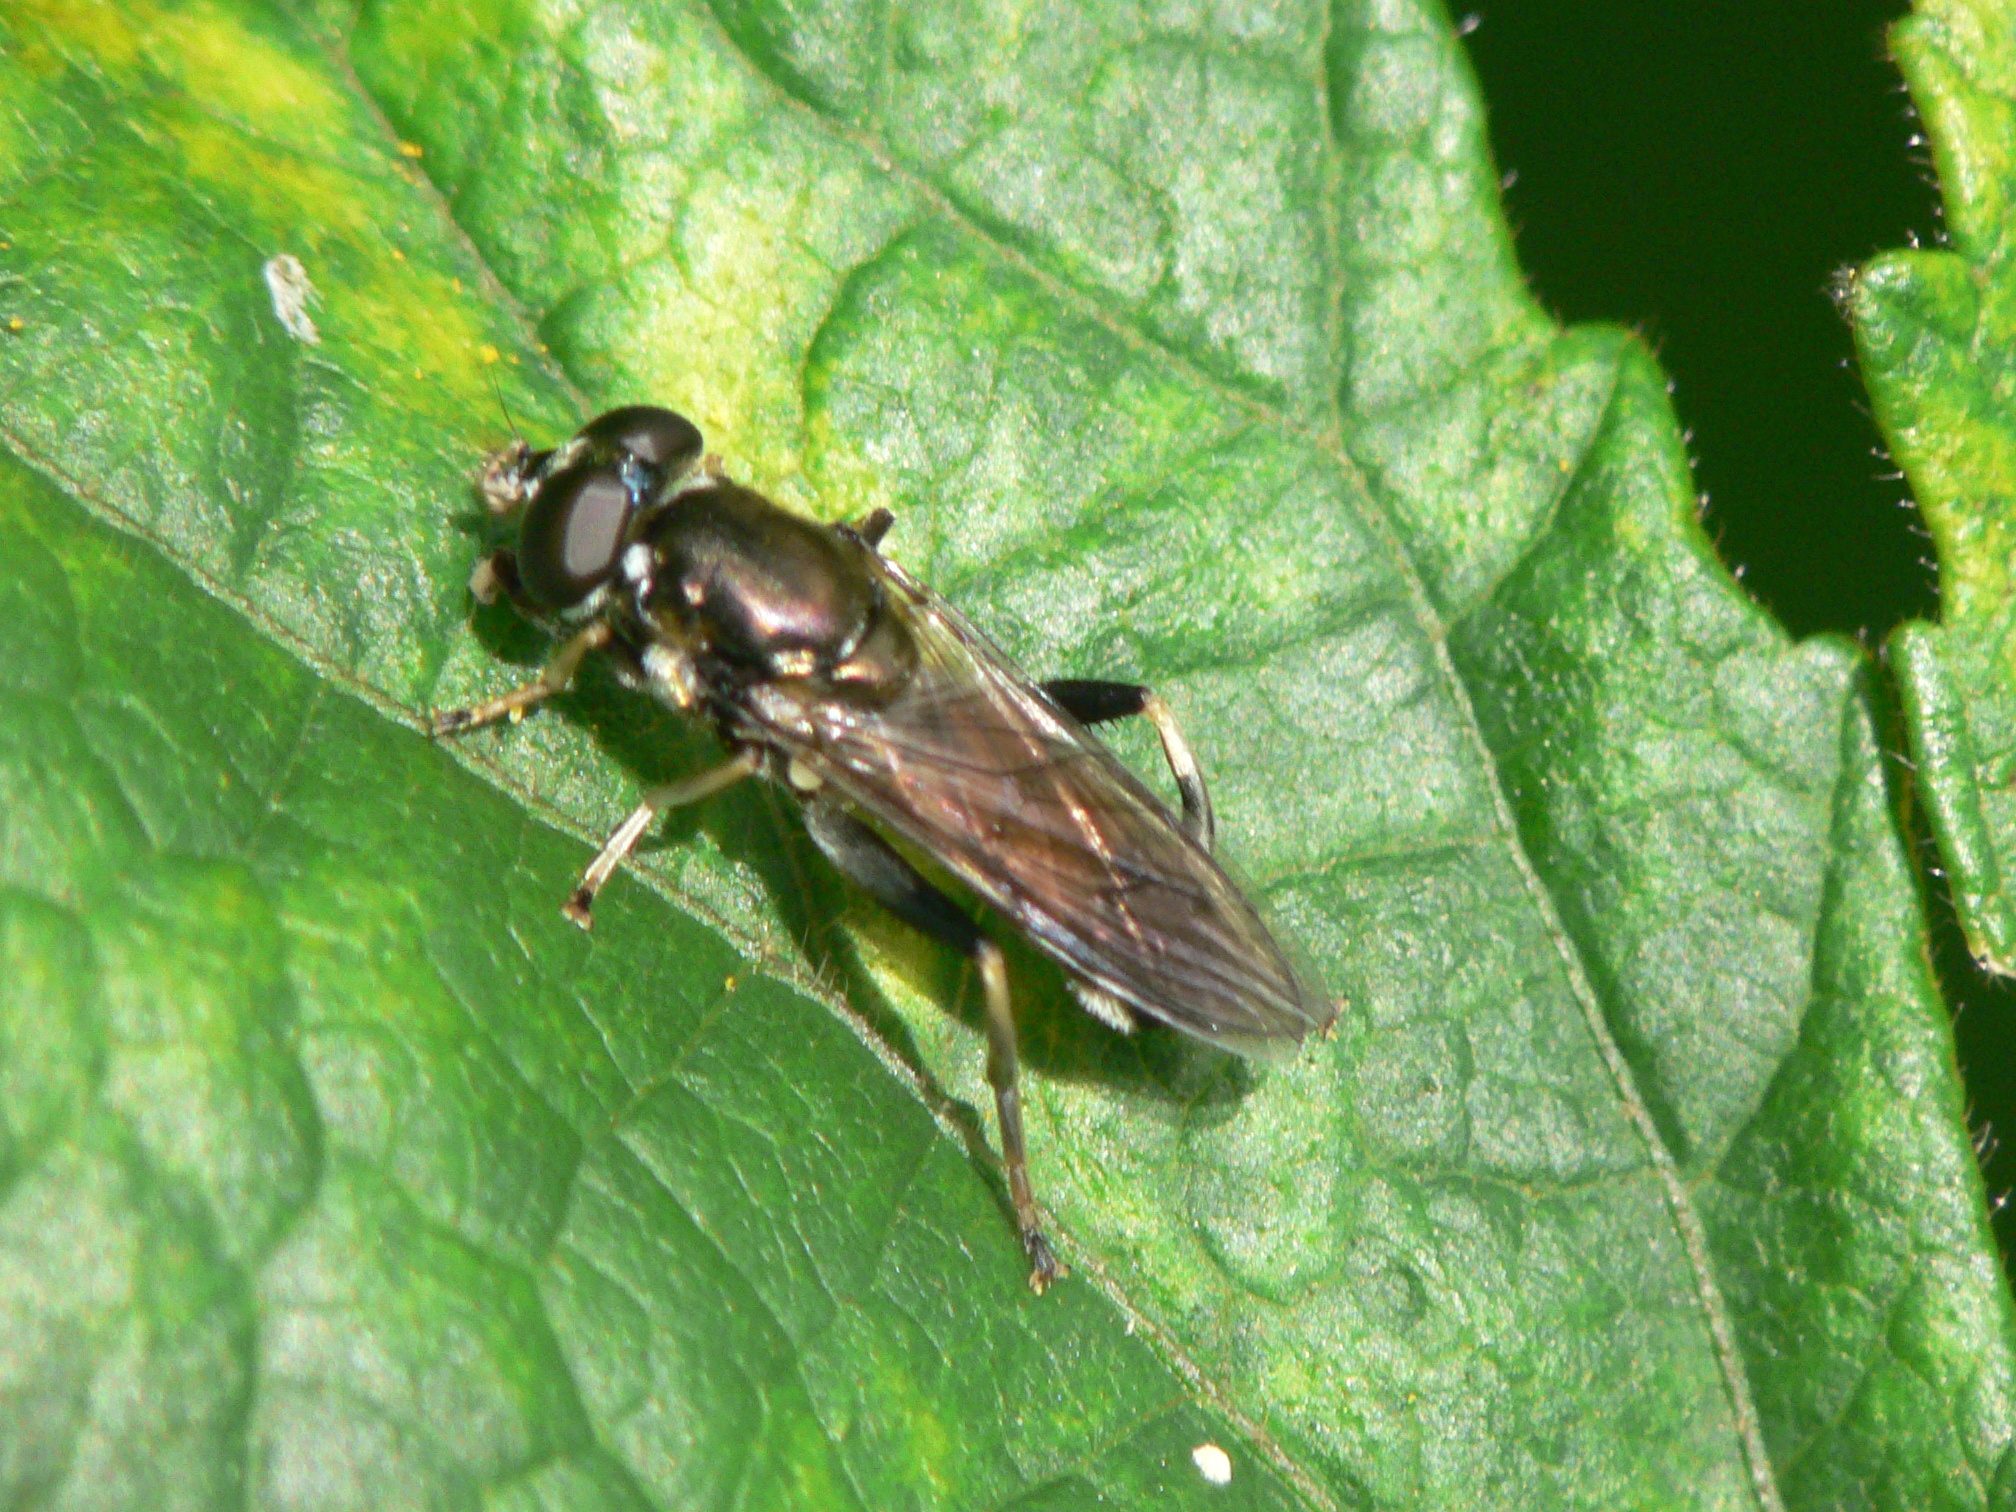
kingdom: Animalia
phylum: Arthropoda
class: Insecta
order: Diptera
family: Syrphidae
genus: Xylota
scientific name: Xylota segnis
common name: Brown-toed forest fly
